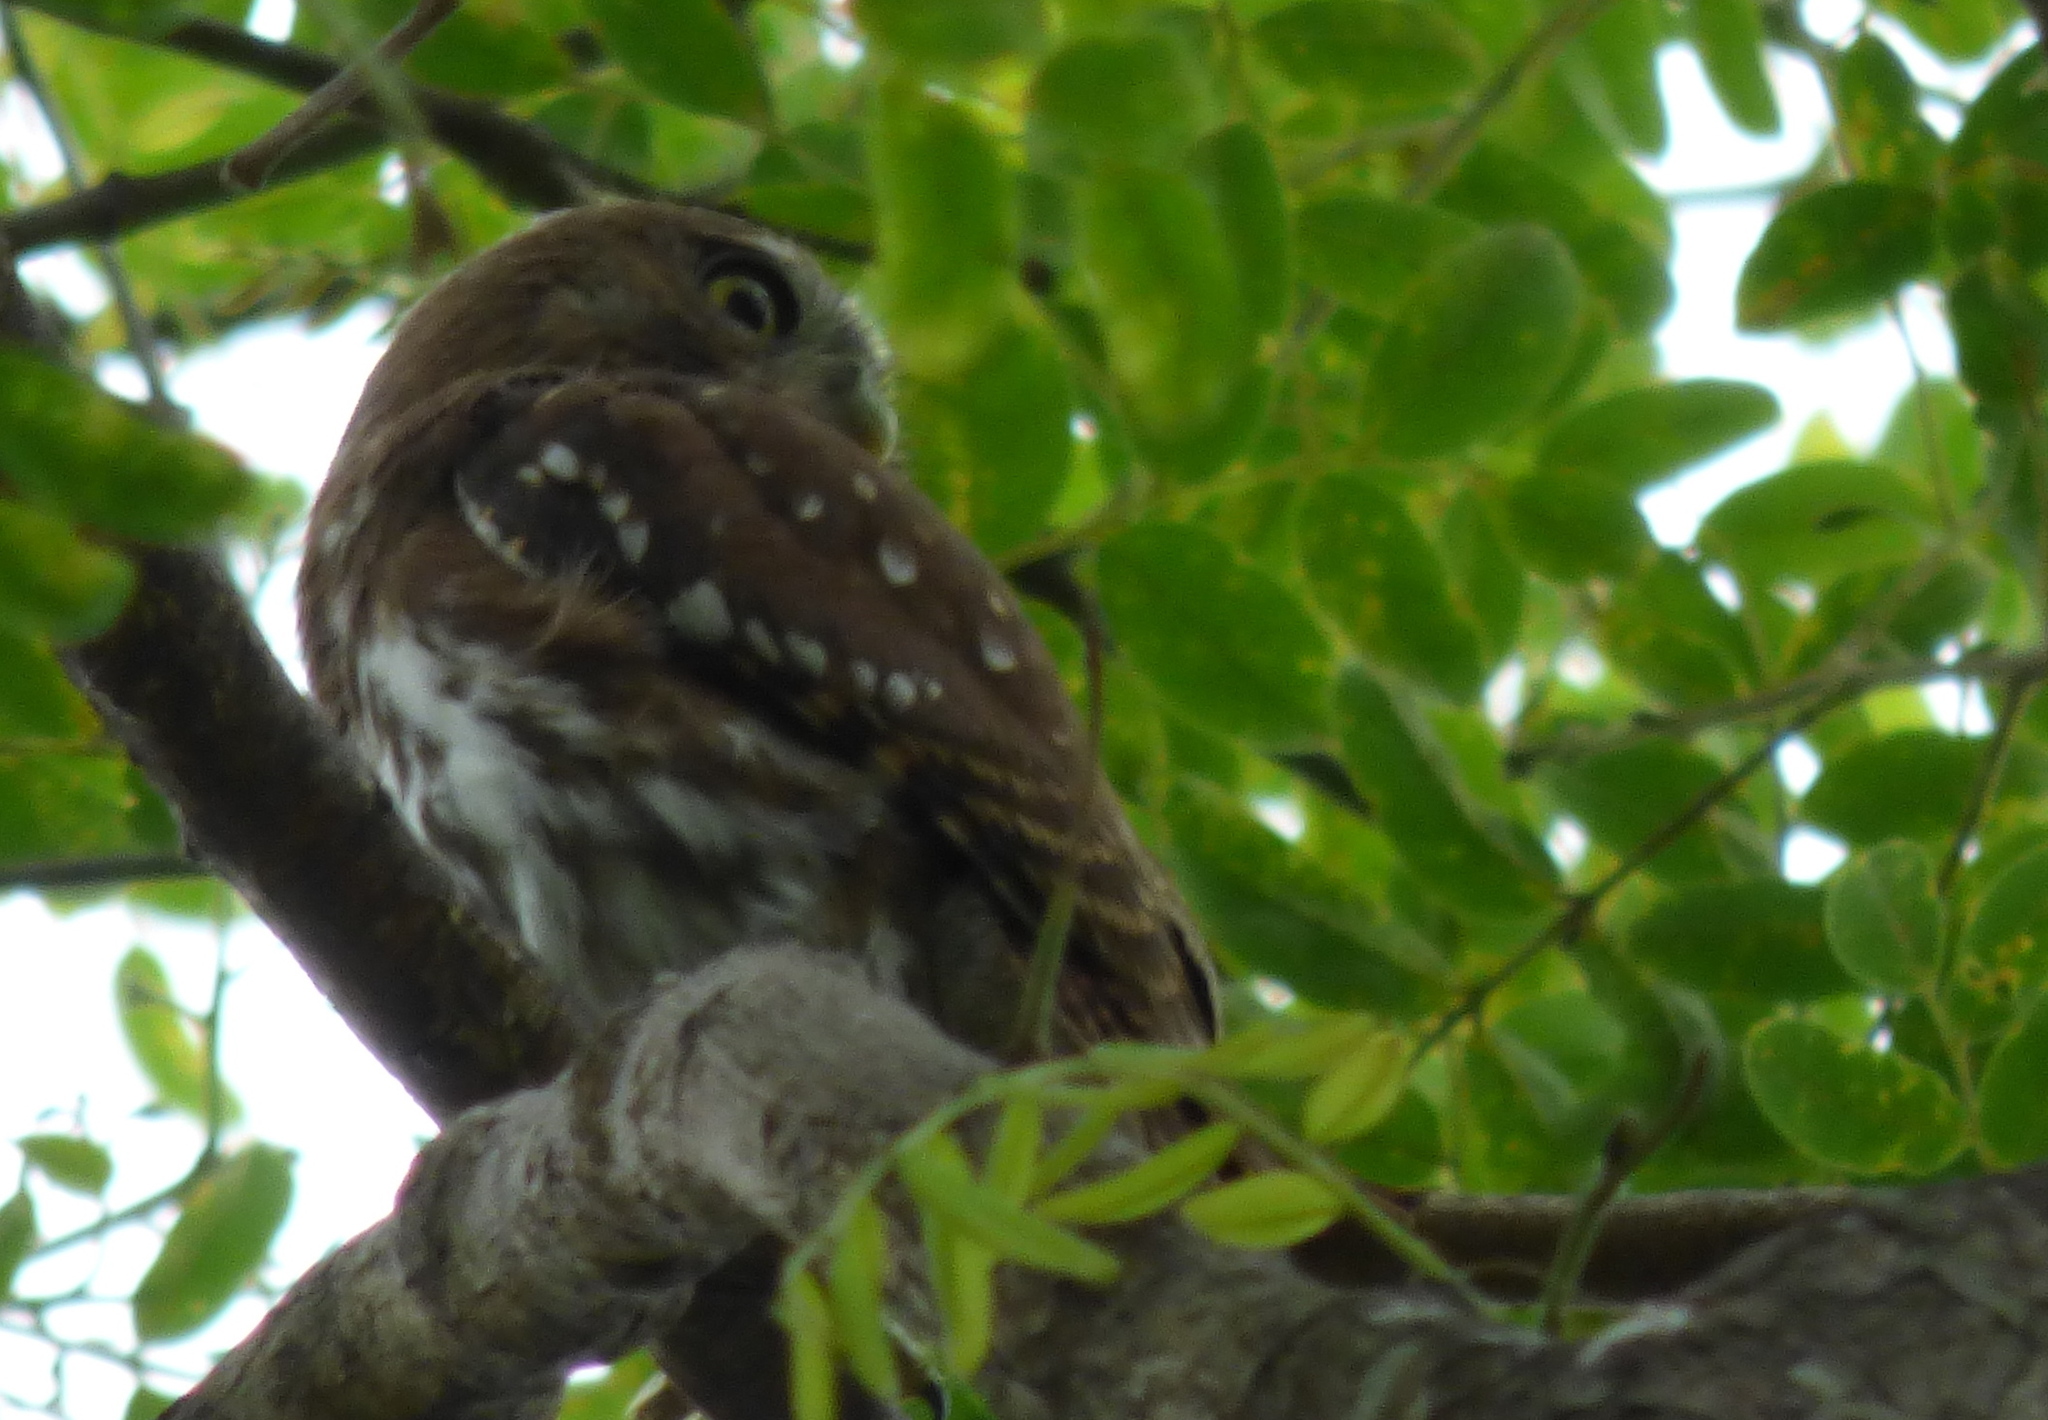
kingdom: Animalia
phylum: Chordata
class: Aves
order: Strigiformes
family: Strigidae
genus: Glaucidium
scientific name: Glaucidium brasilianum
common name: Ferruginous pygmy-owl
